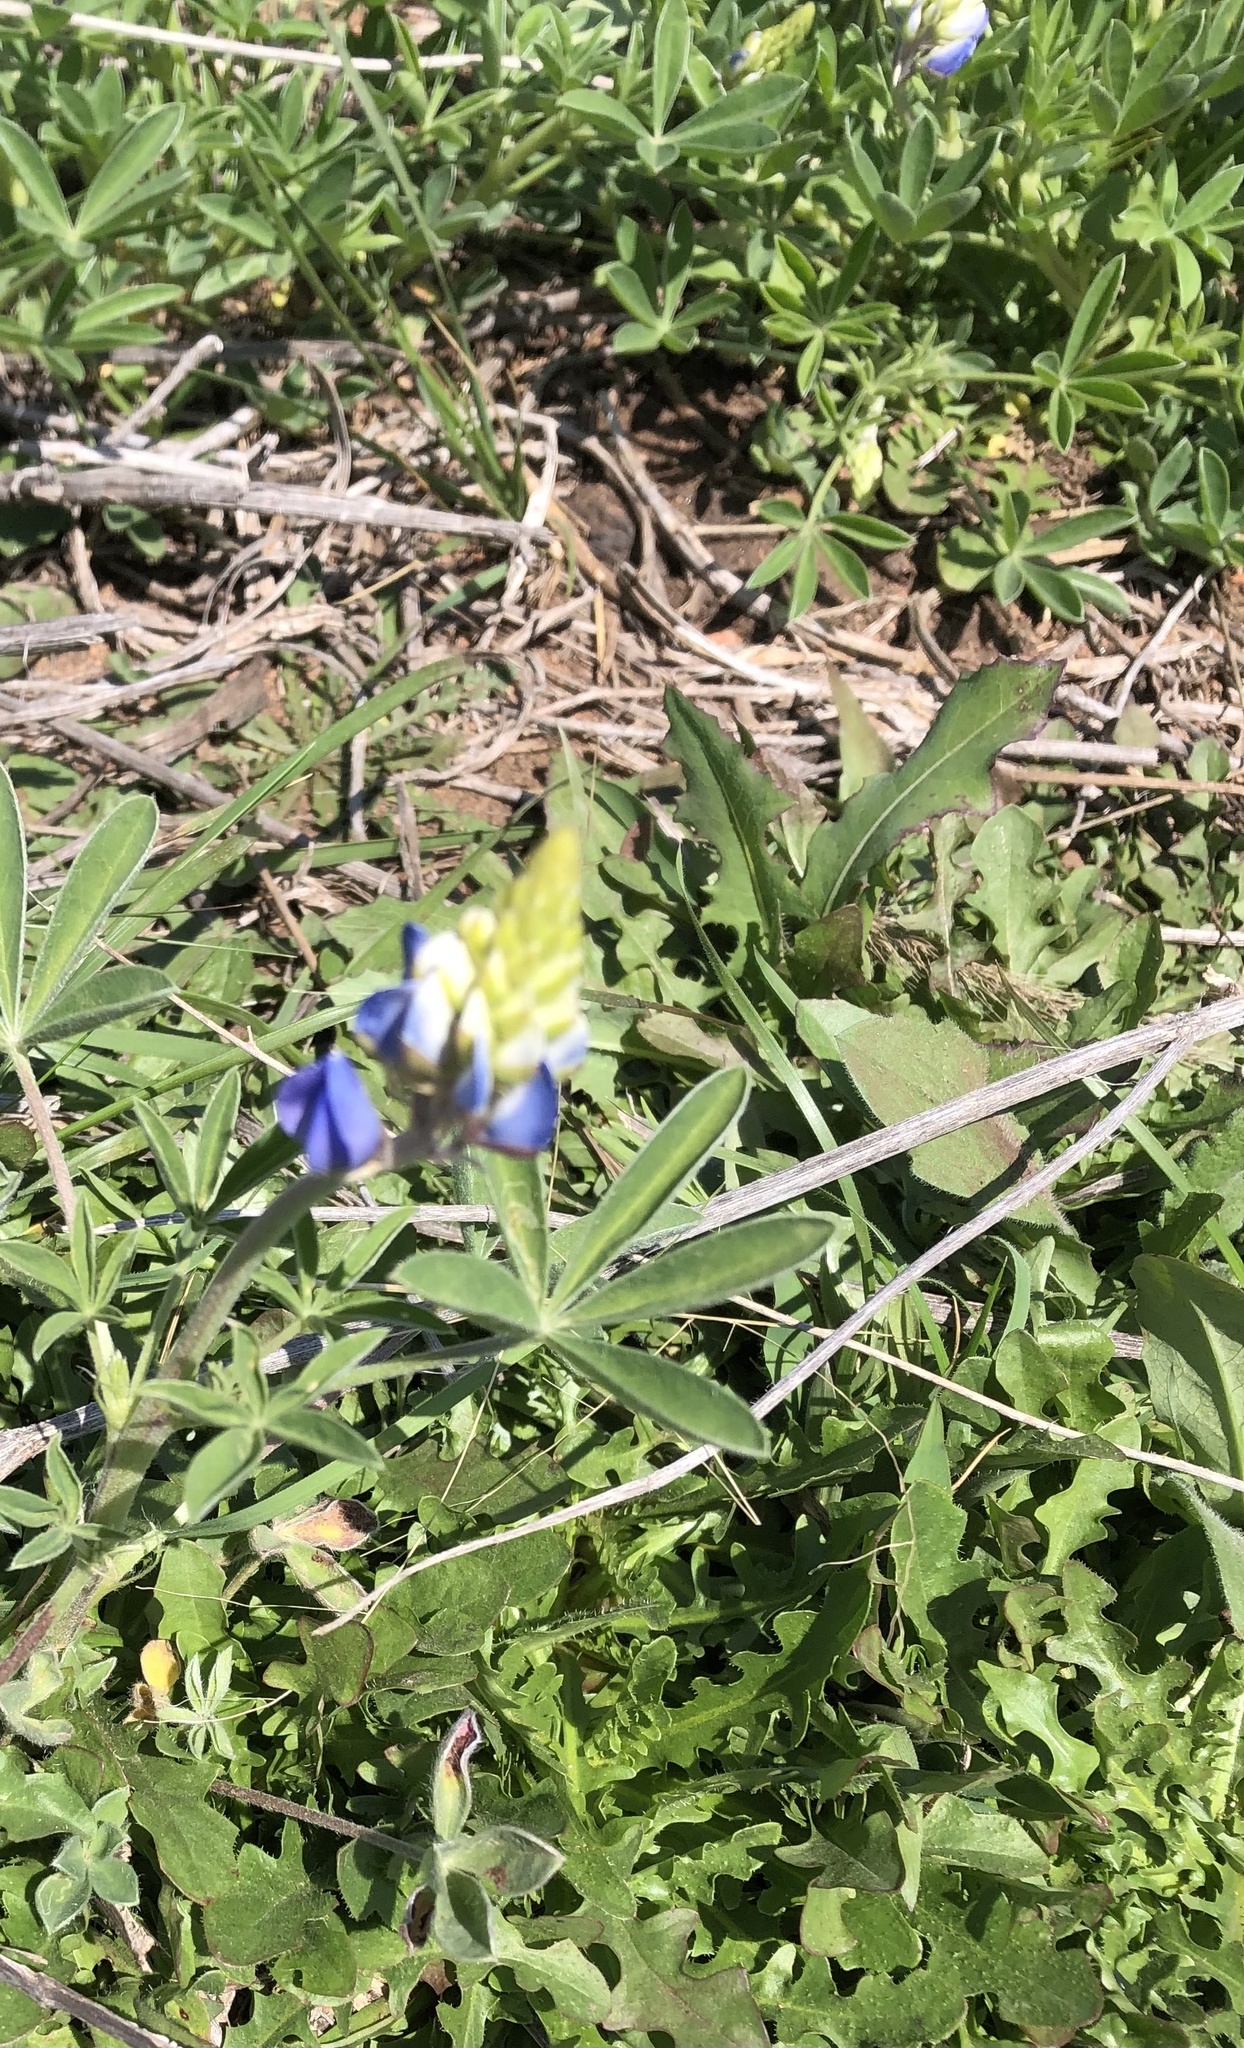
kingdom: Plantae
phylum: Tracheophyta
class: Magnoliopsida
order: Fabales
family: Fabaceae
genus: Lupinus
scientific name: Lupinus texensis
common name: Texas bluebonnet
